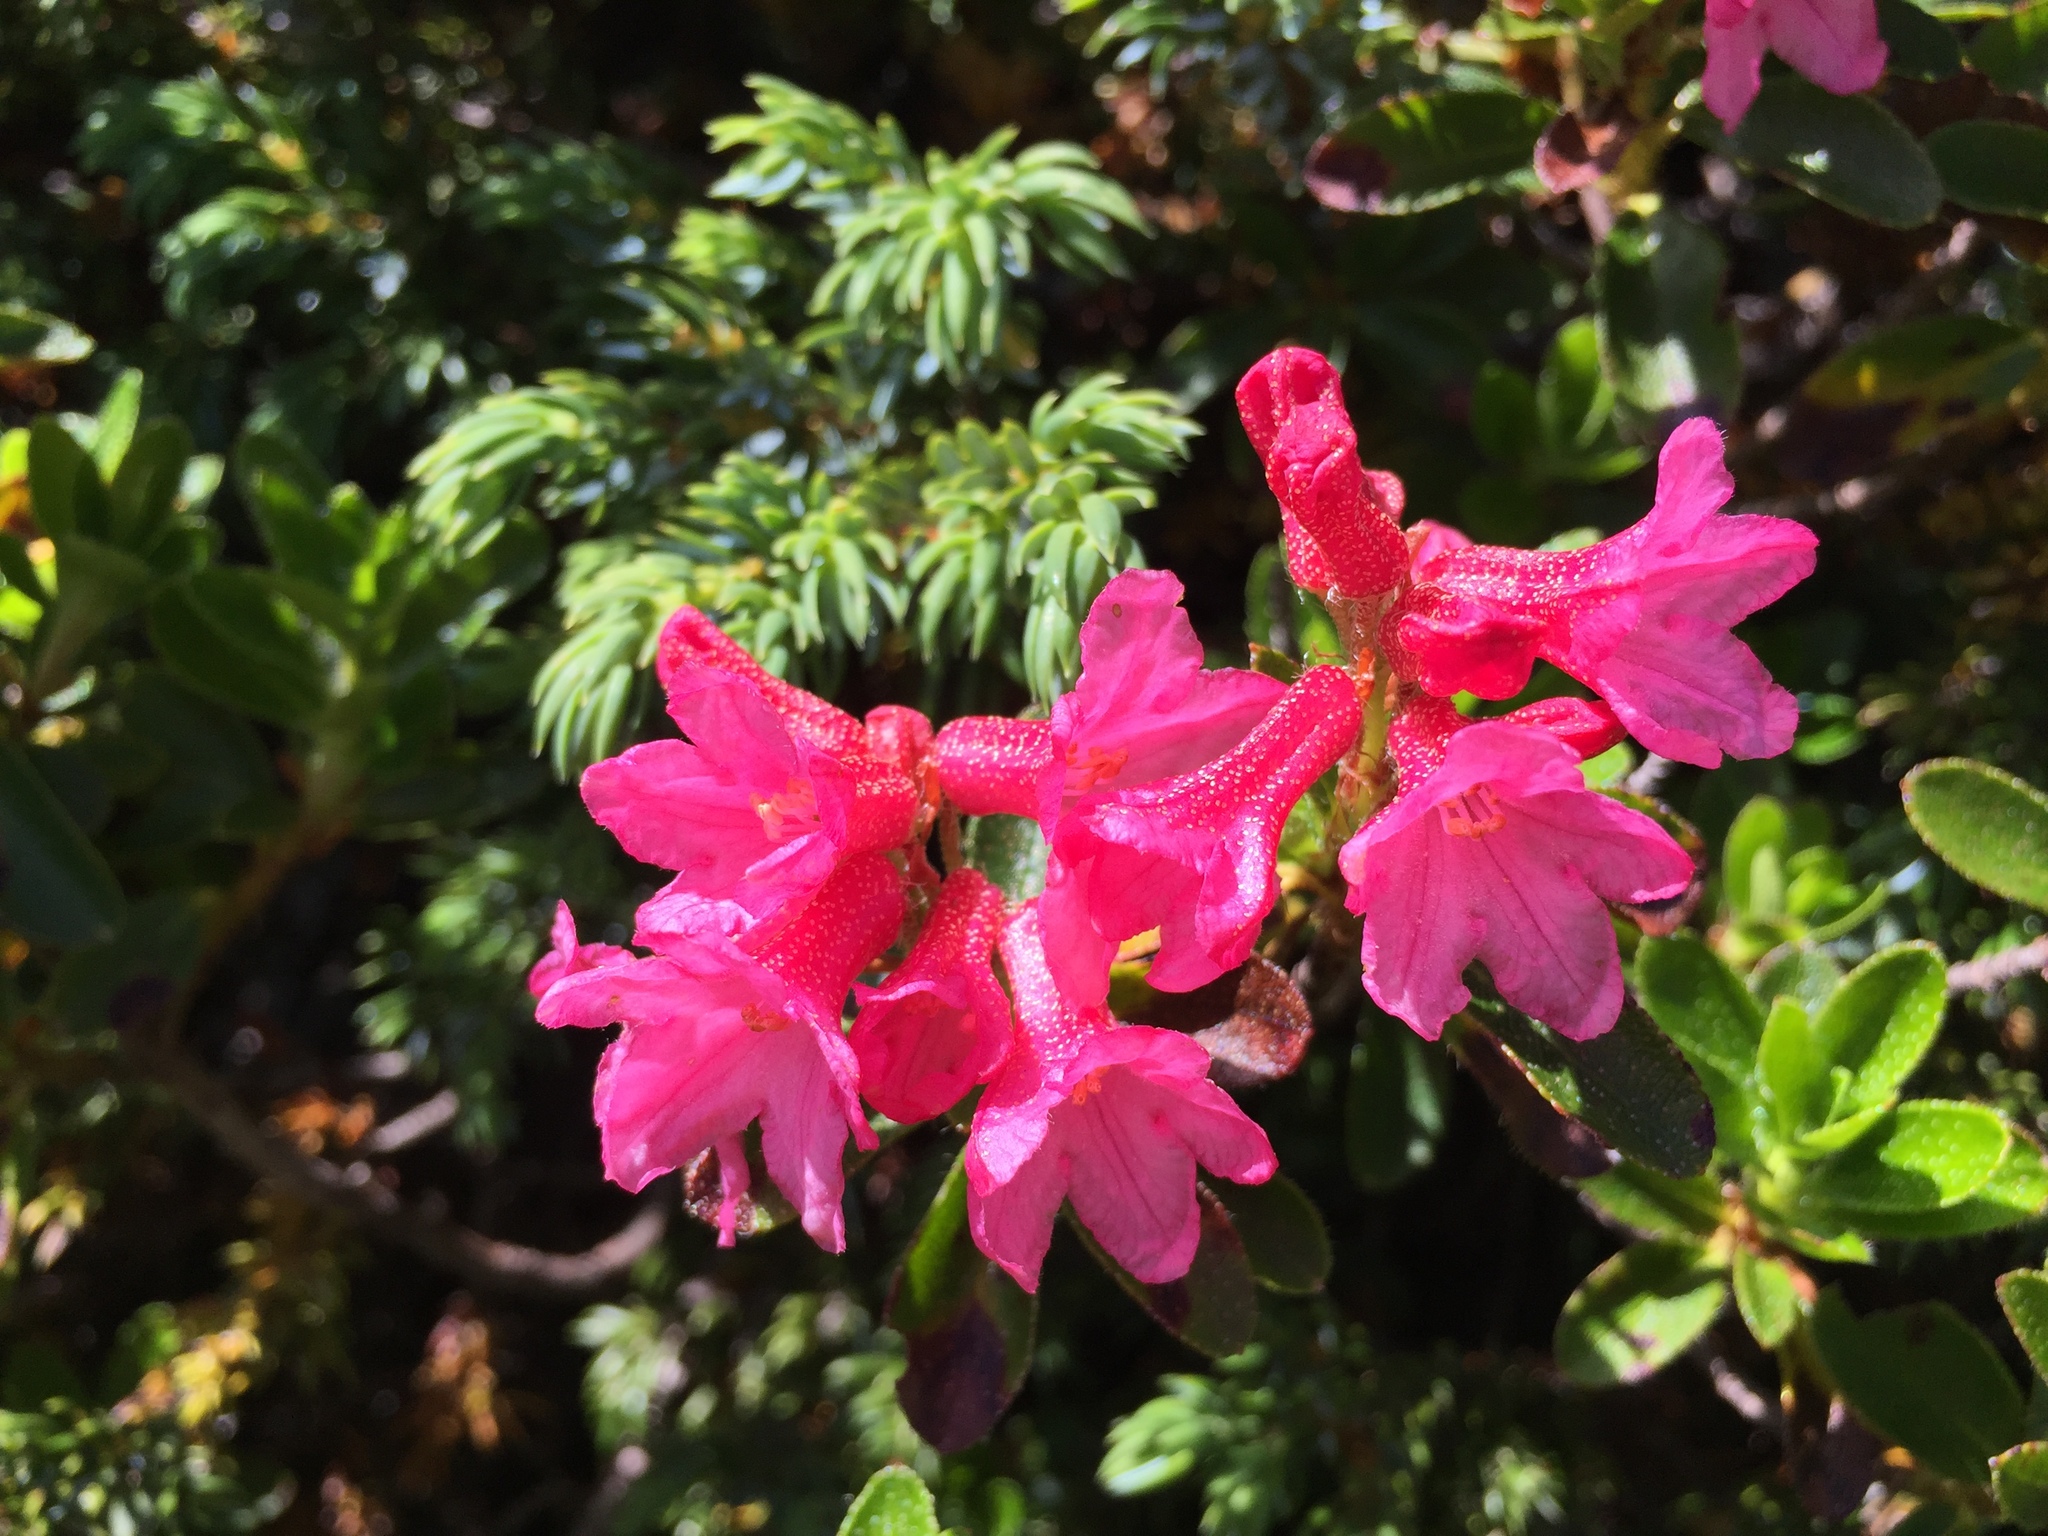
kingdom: Plantae
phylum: Tracheophyta
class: Magnoliopsida
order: Ericales
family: Ericaceae
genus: Rhododendron
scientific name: Rhododendron ferrugineum
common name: Alpenrose
